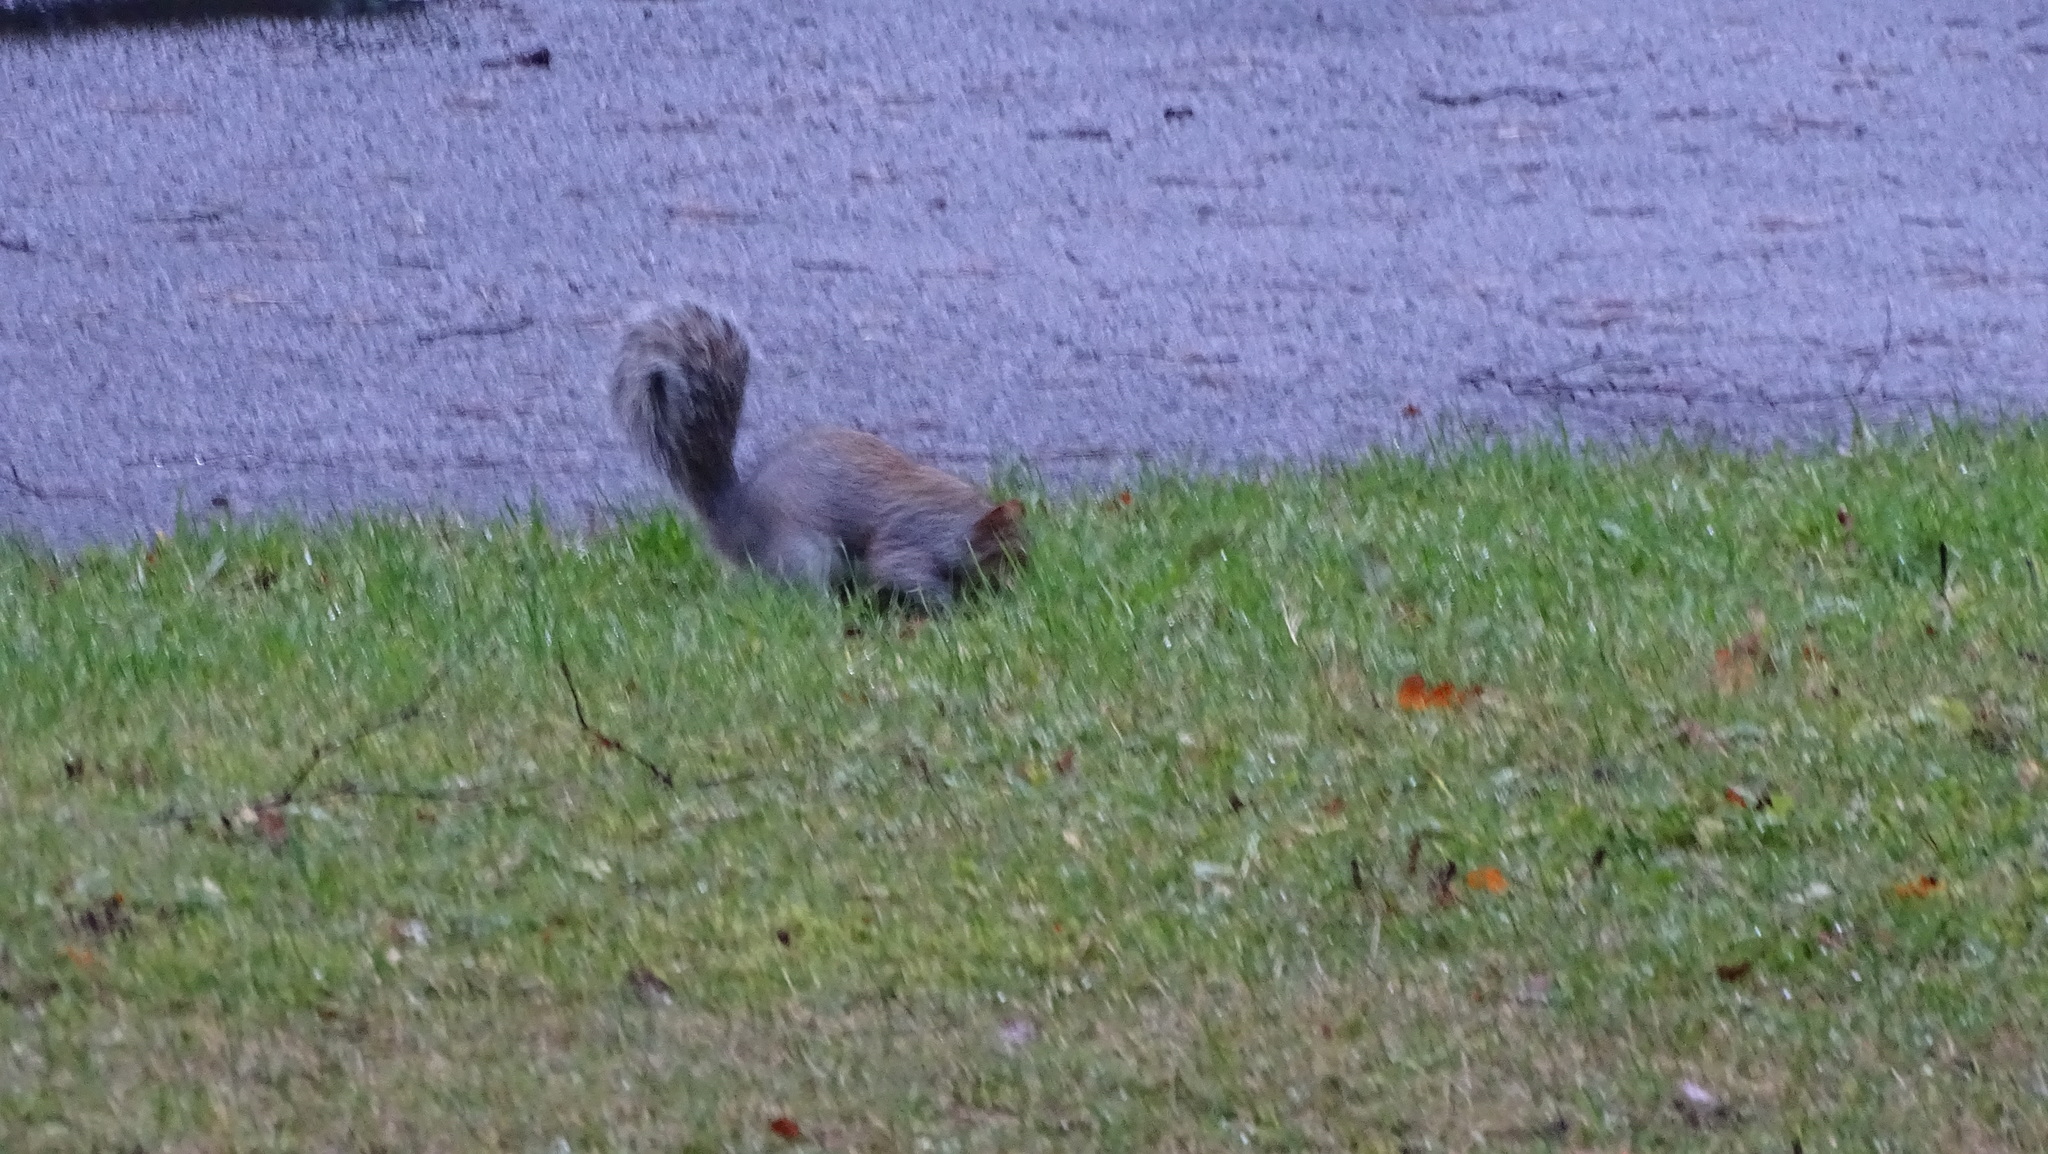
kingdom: Animalia
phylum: Chordata
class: Mammalia
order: Rodentia
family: Sciuridae
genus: Sciurus
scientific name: Sciurus carolinensis
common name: Eastern gray squirrel
